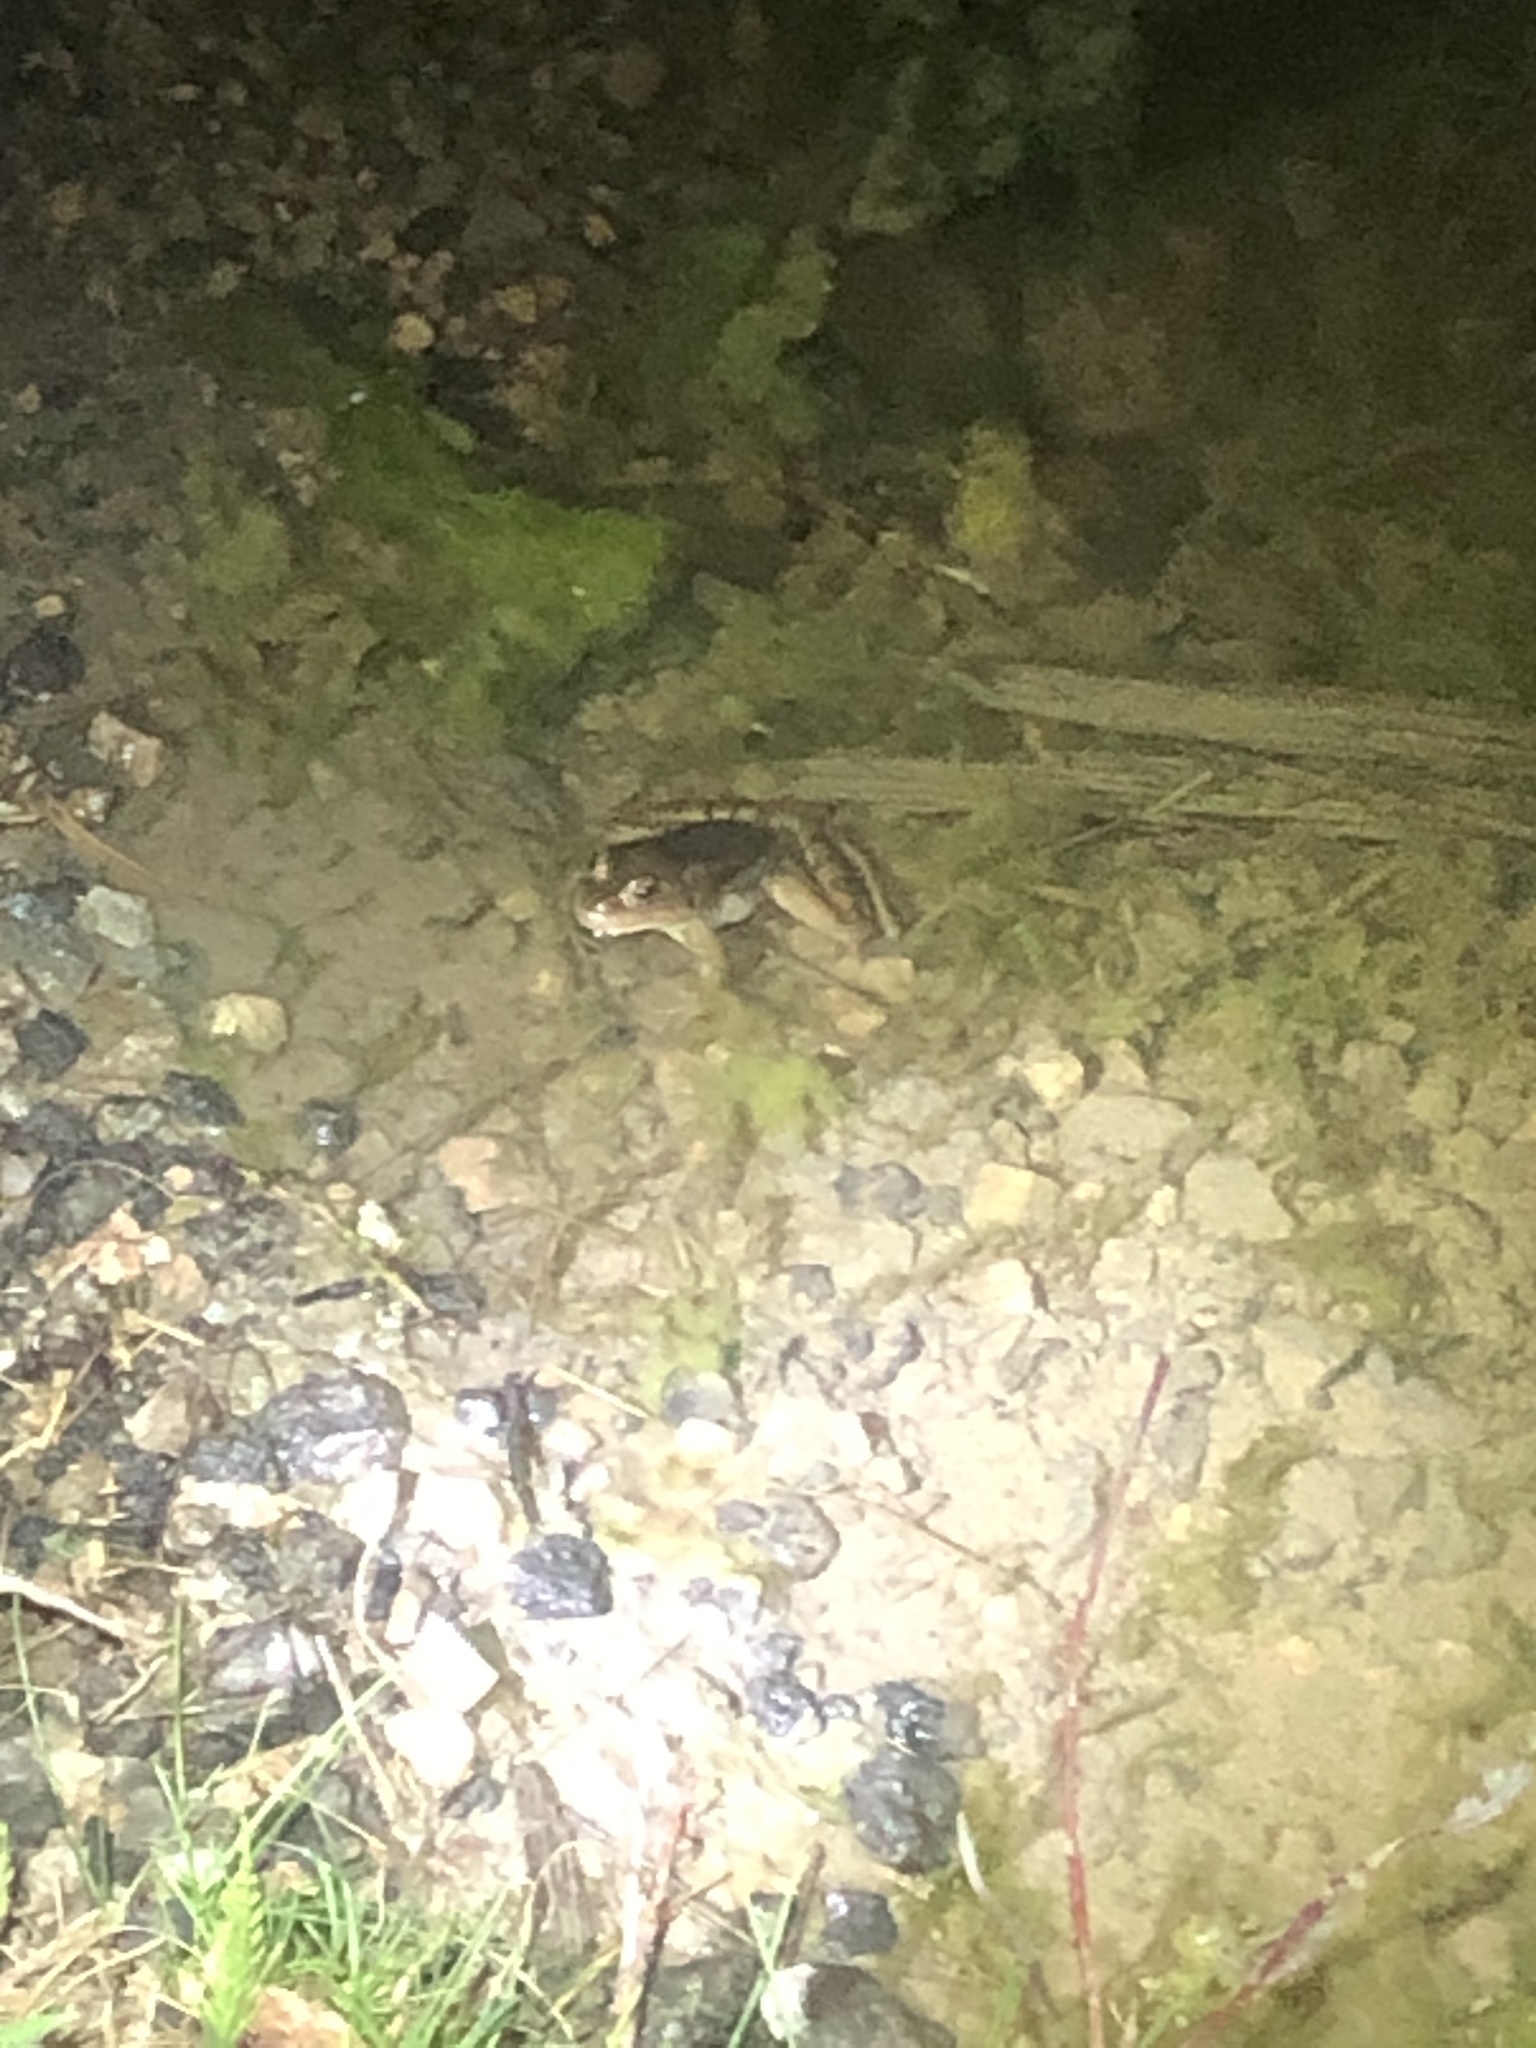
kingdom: Animalia
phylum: Chordata
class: Amphibia
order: Anura
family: Ranidae
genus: Rana
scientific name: Rana luteiventris
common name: Columbia spotted frog
